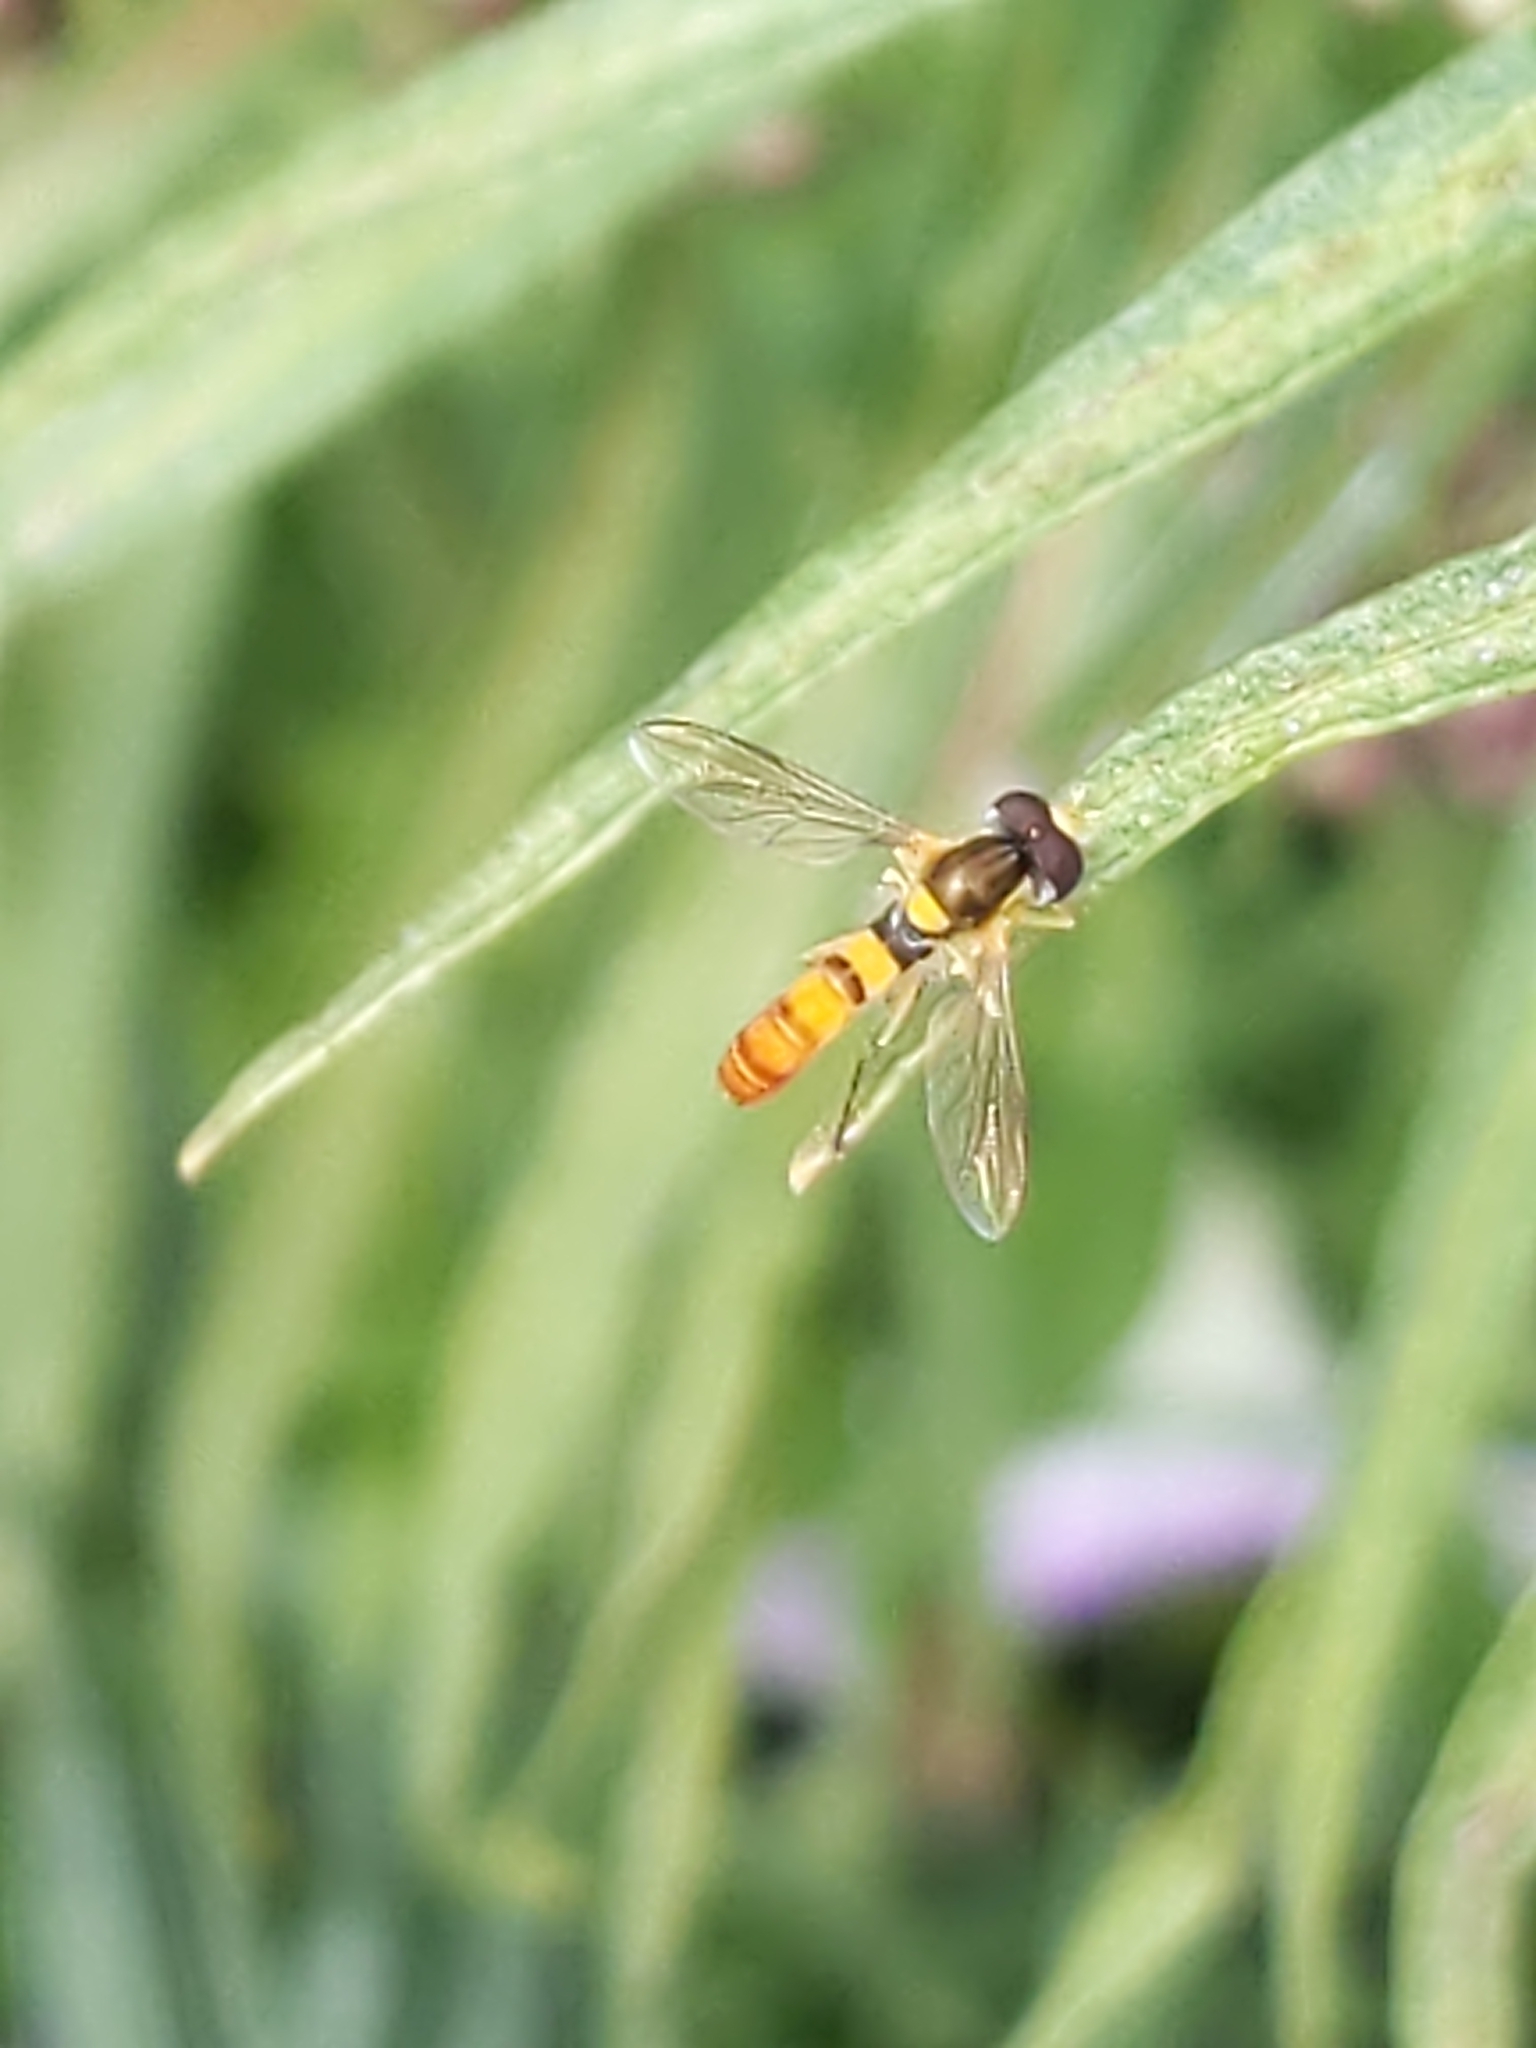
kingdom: Animalia
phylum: Arthropoda
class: Insecta
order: Diptera
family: Syrphidae
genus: Sphaerophoria
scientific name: Sphaerophoria contigua
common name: Tufted globetail
